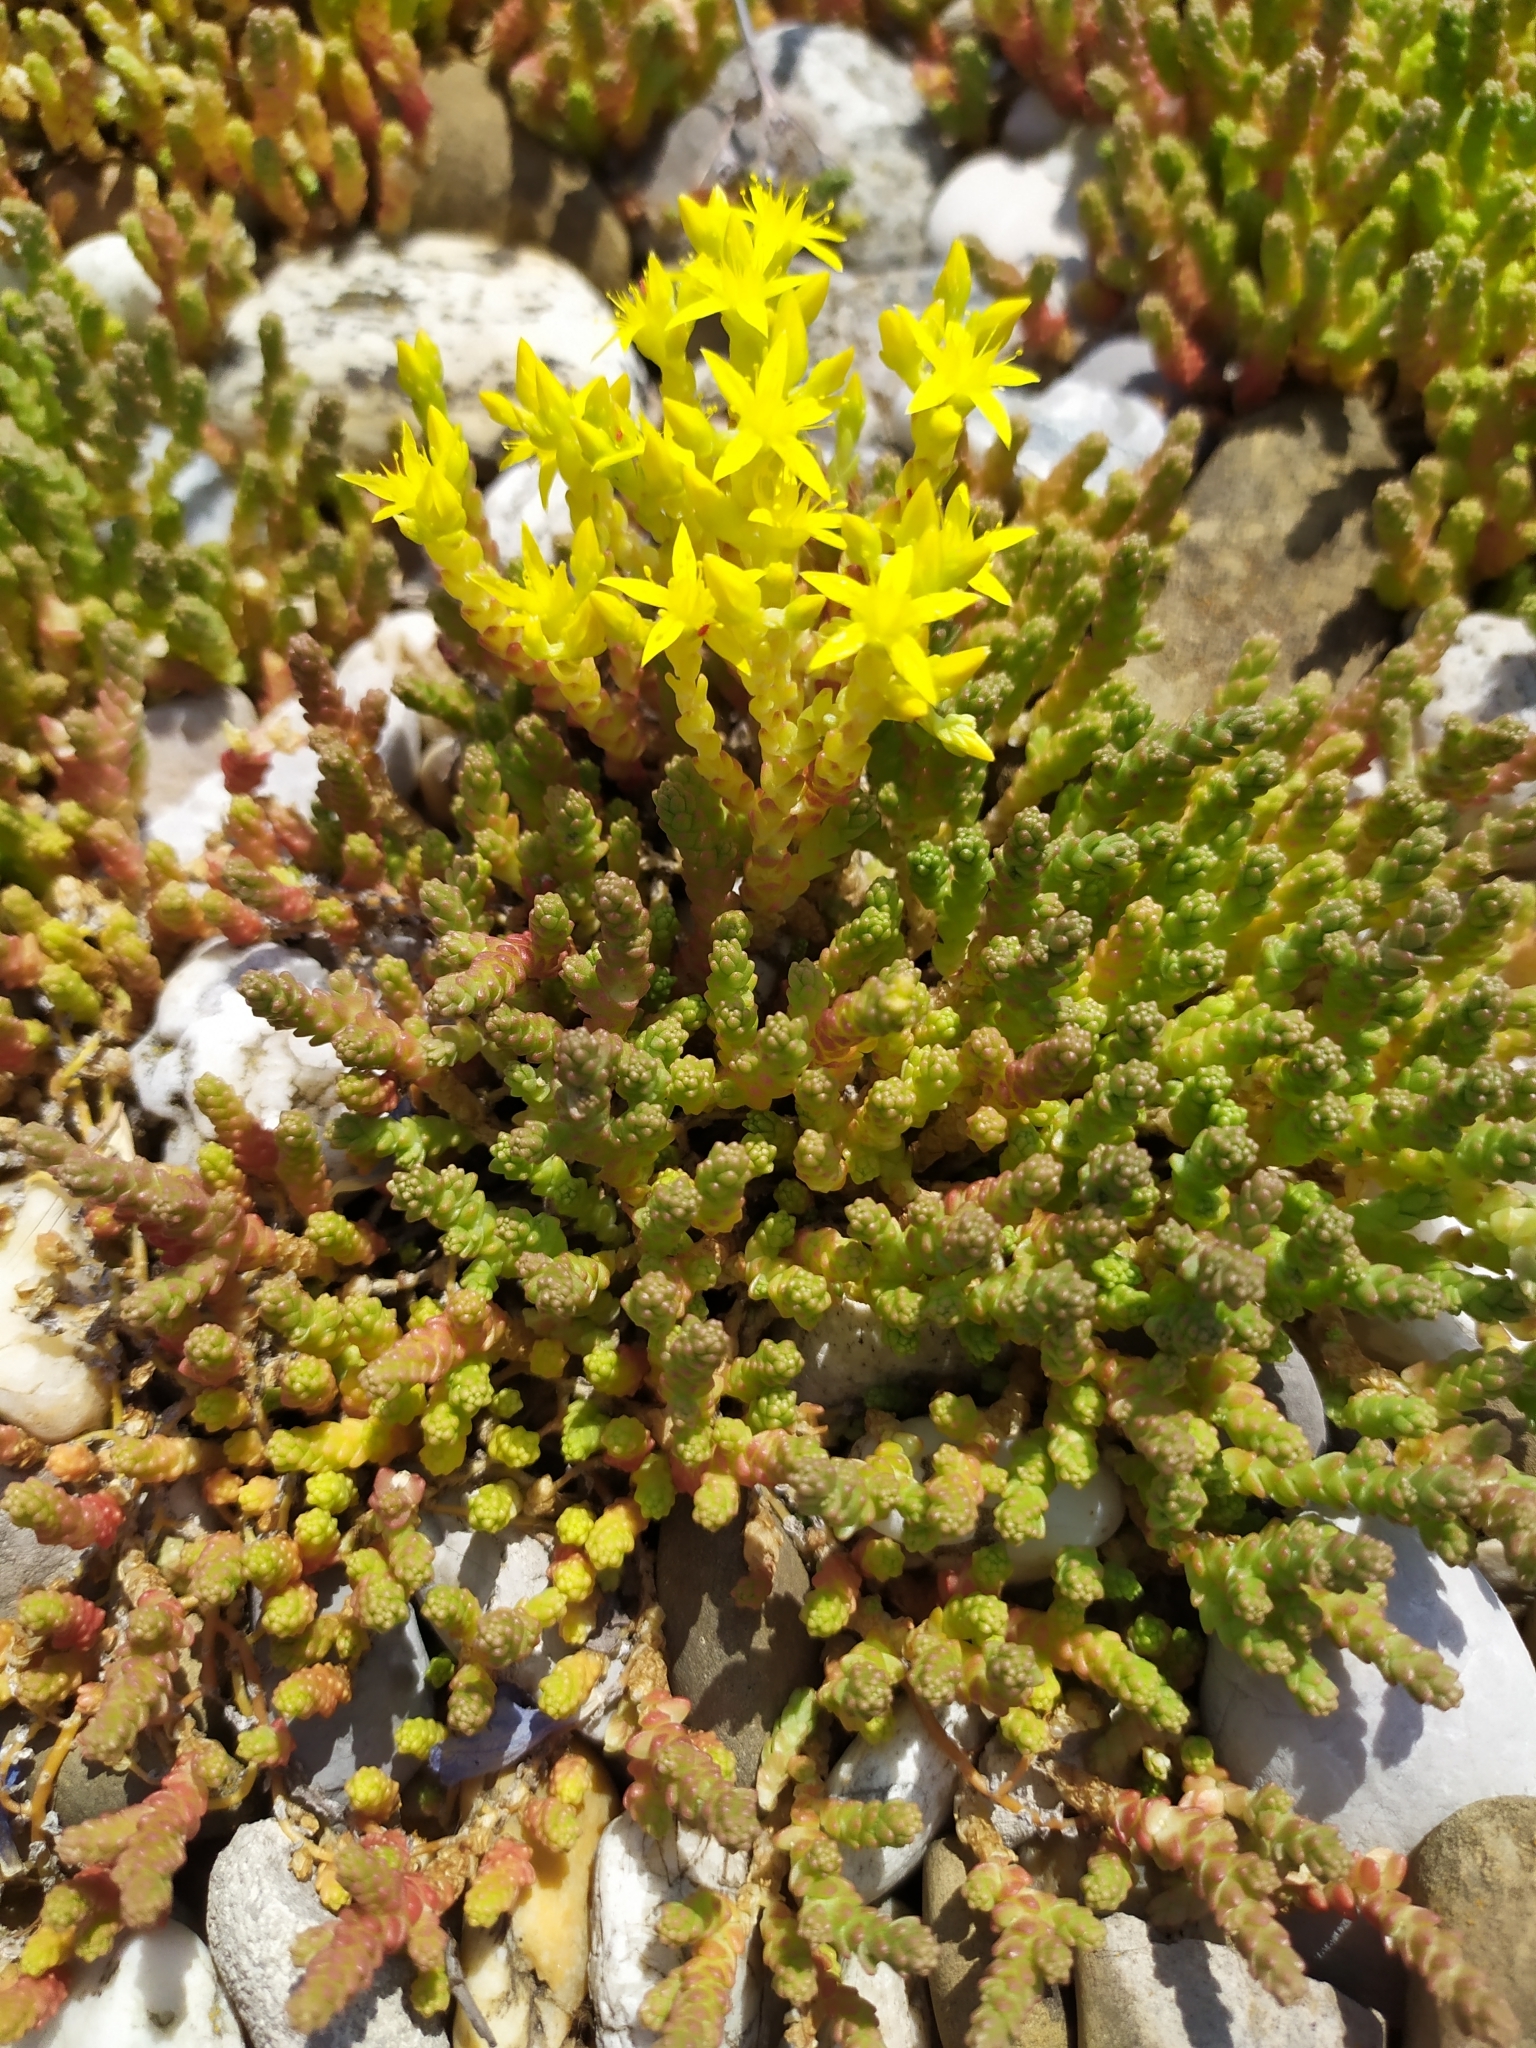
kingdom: Plantae
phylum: Tracheophyta
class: Magnoliopsida
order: Saxifragales
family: Crassulaceae
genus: Sedum
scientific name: Sedum acre
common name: Biting stonecrop
